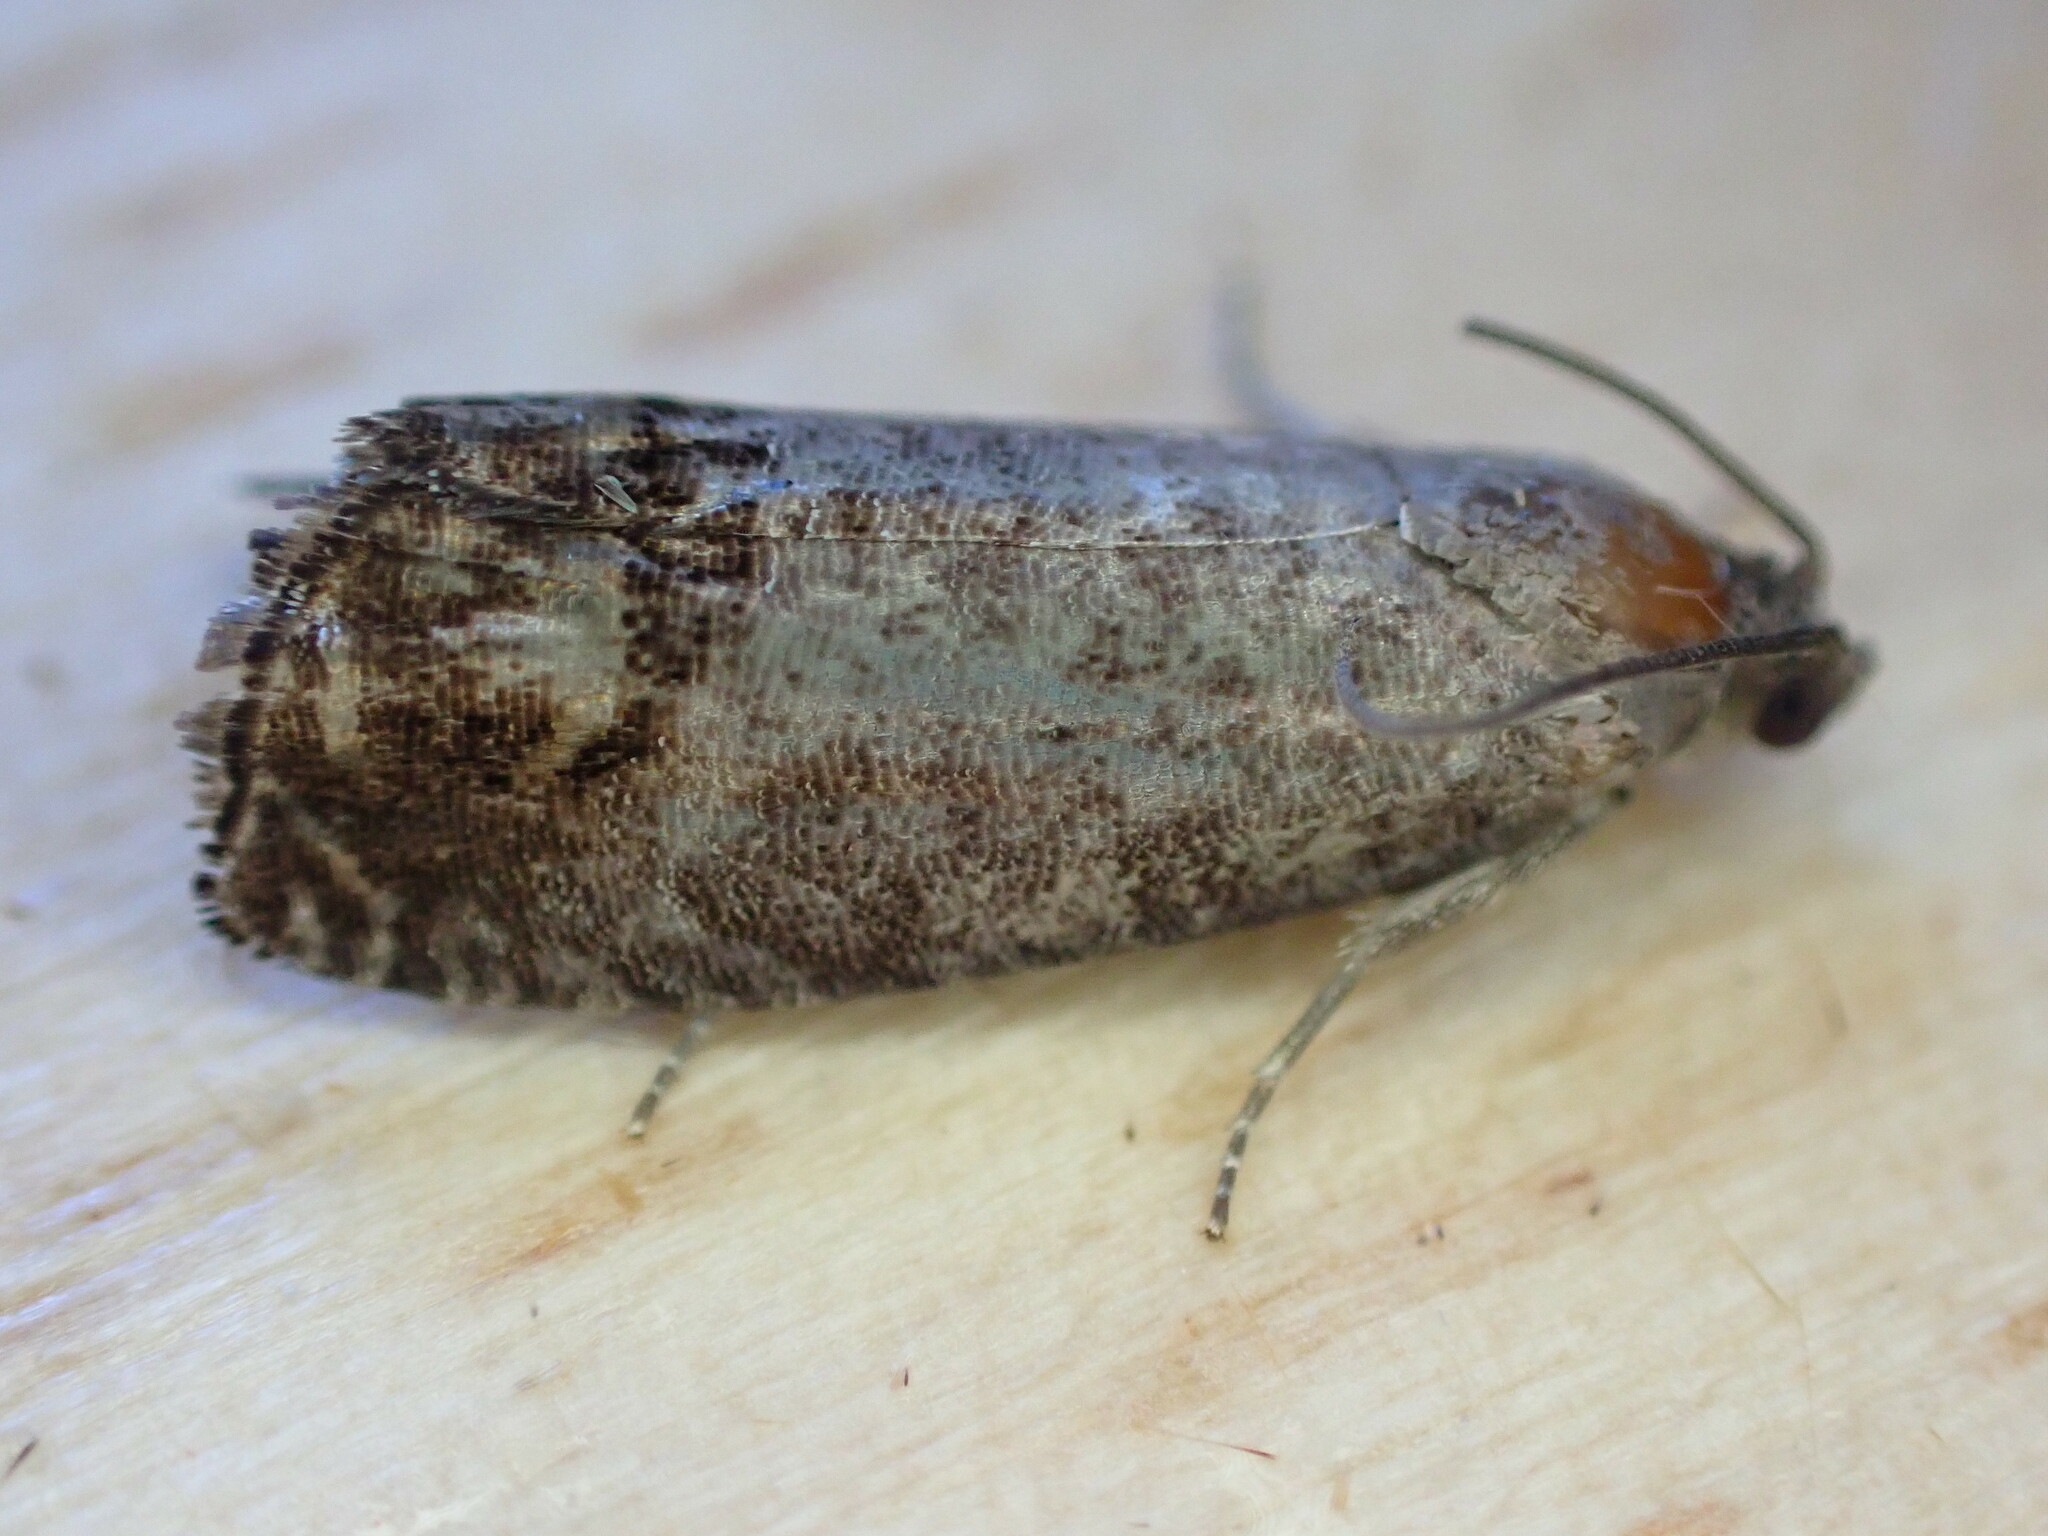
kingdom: Animalia
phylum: Arthropoda
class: Insecta
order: Lepidoptera
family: Tortricidae
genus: Cydia
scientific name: Cydia pomonella
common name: Codling moth
